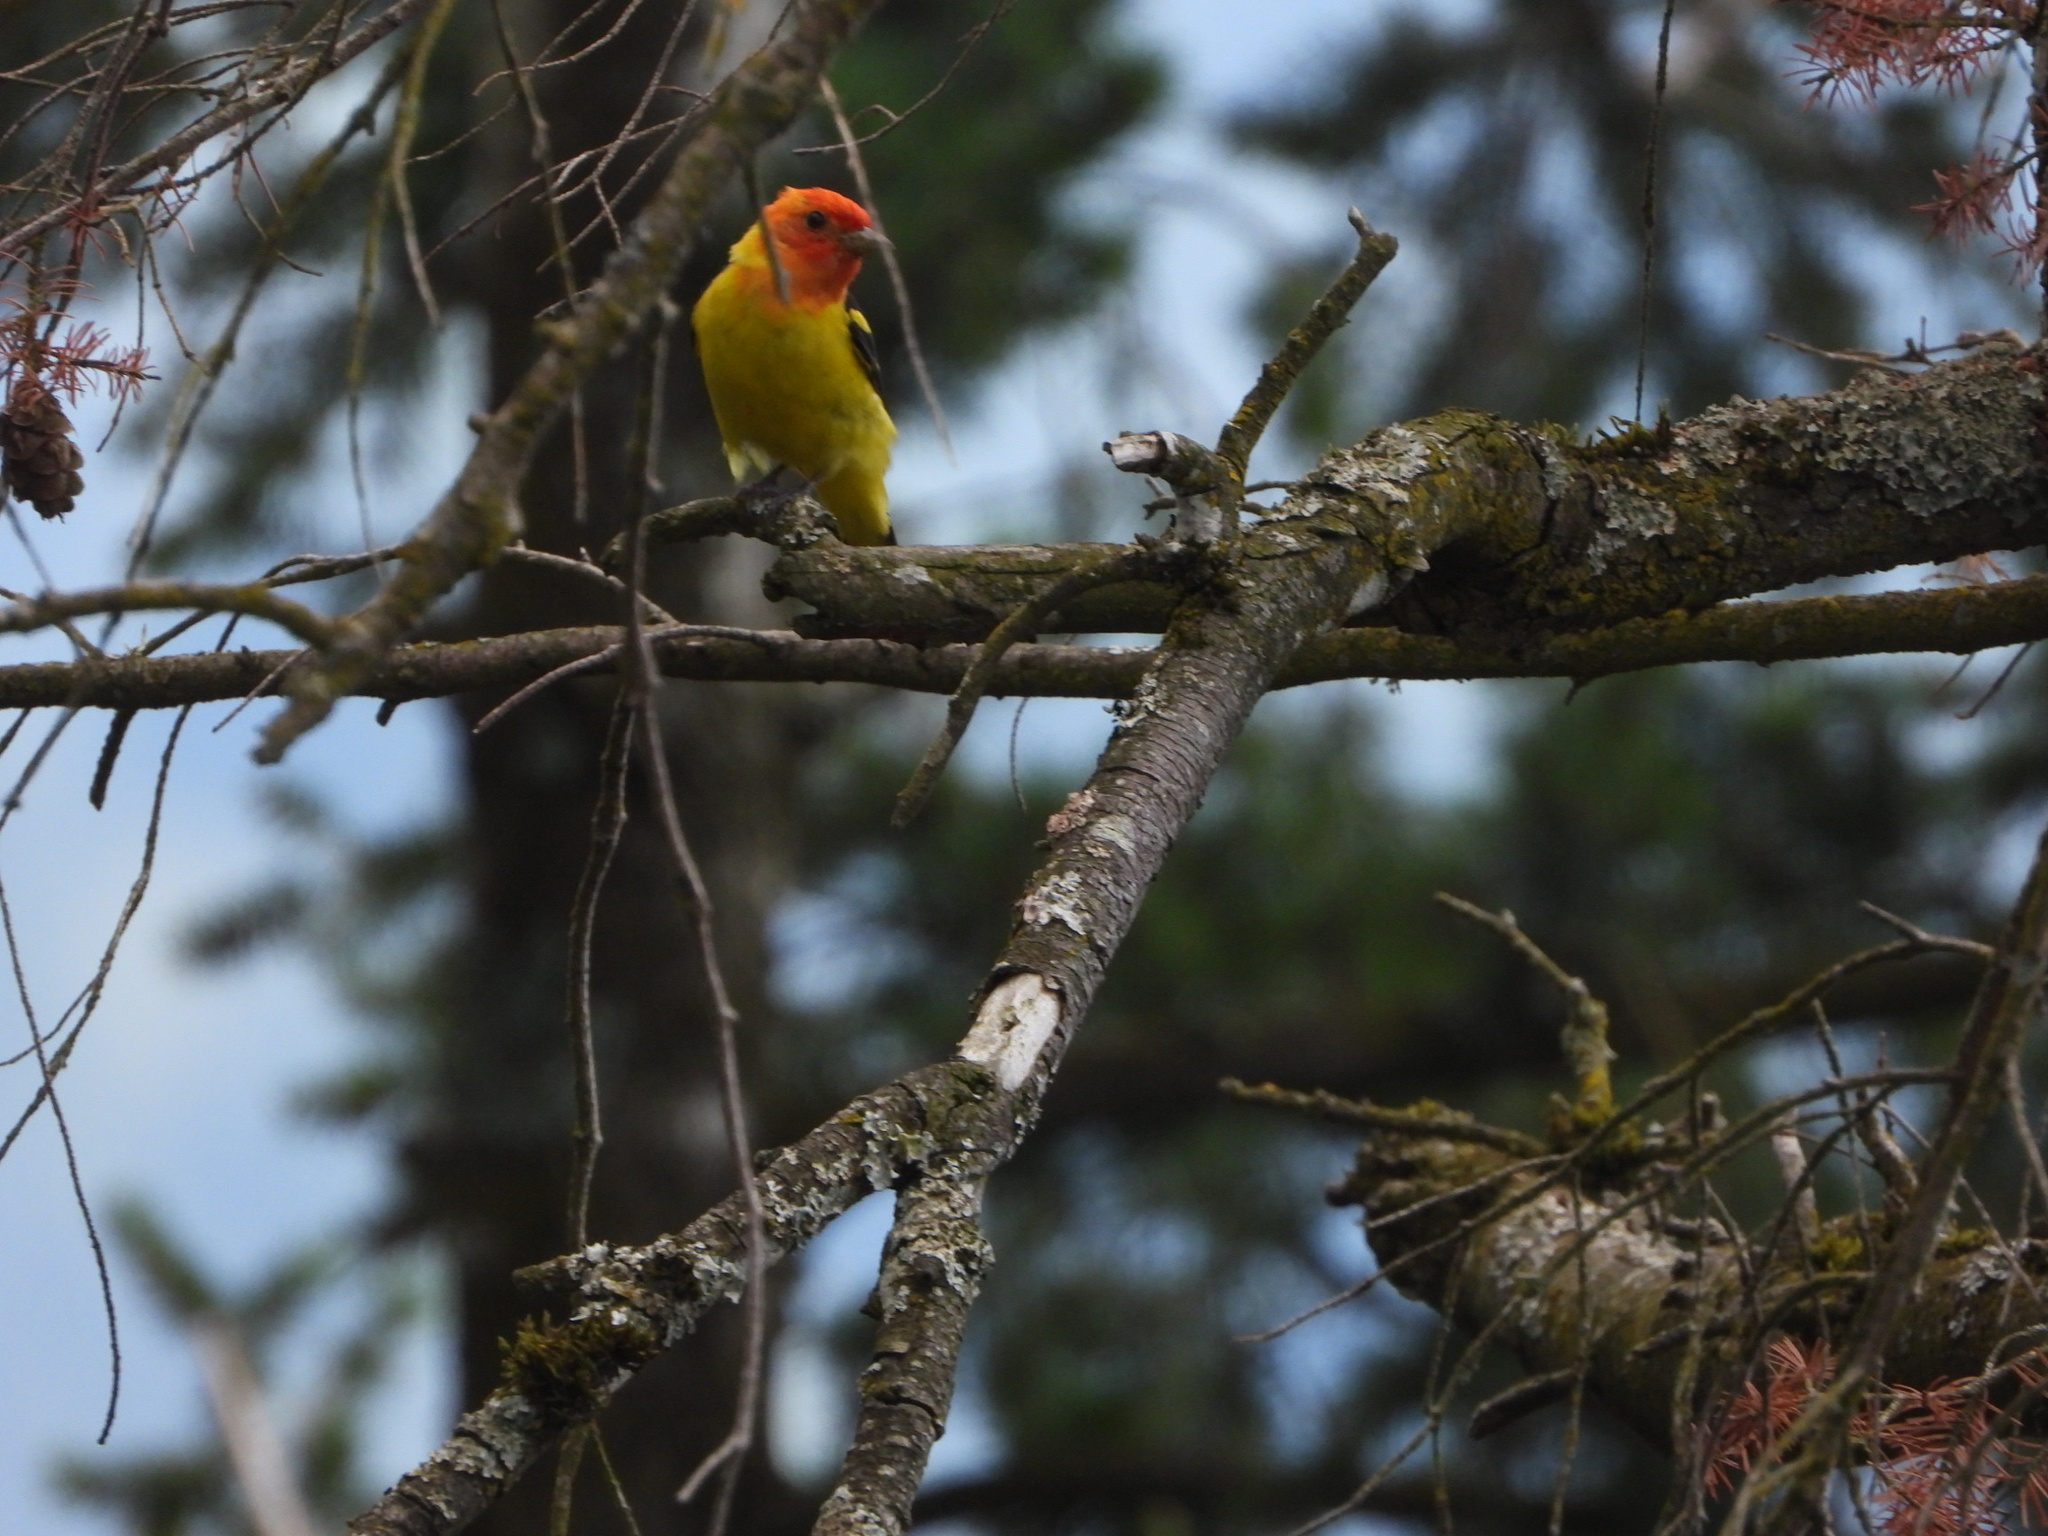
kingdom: Animalia
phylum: Chordata
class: Aves
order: Passeriformes
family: Cardinalidae
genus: Piranga
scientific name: Piranga ludoviciana
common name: Western tanager
